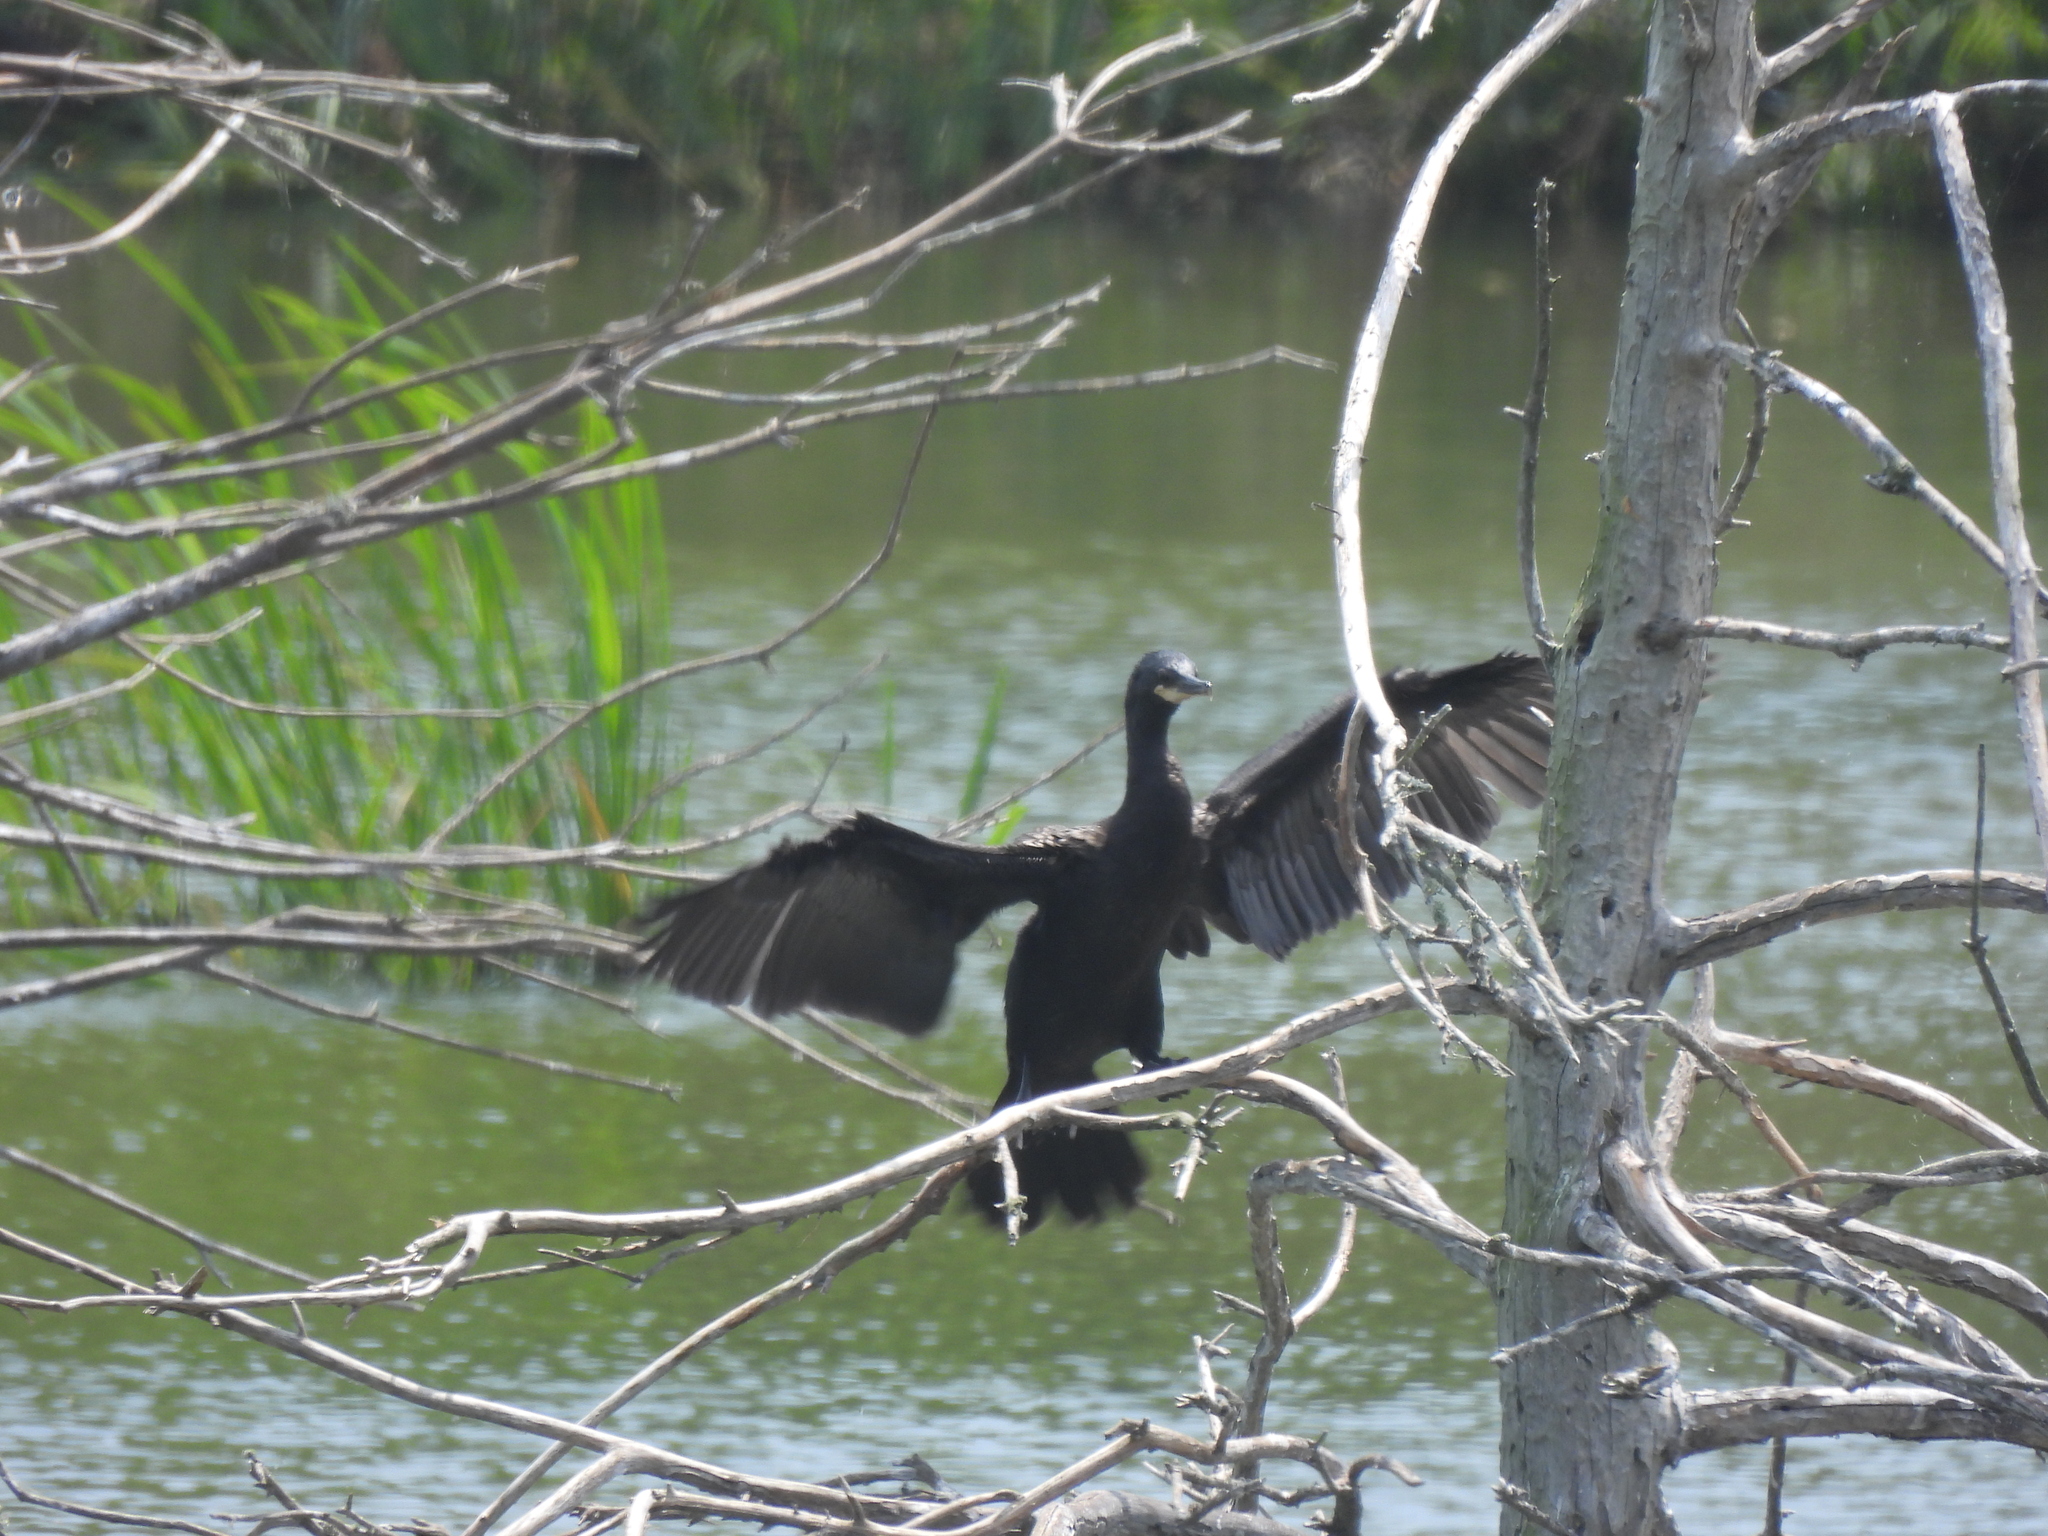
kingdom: Animalia
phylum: Chordata
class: Aves
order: Suliformes
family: Phalacrocoracidae
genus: Phalacrocorax
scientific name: Phalacrocorax brasilianus
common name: Neotropic cormorant
